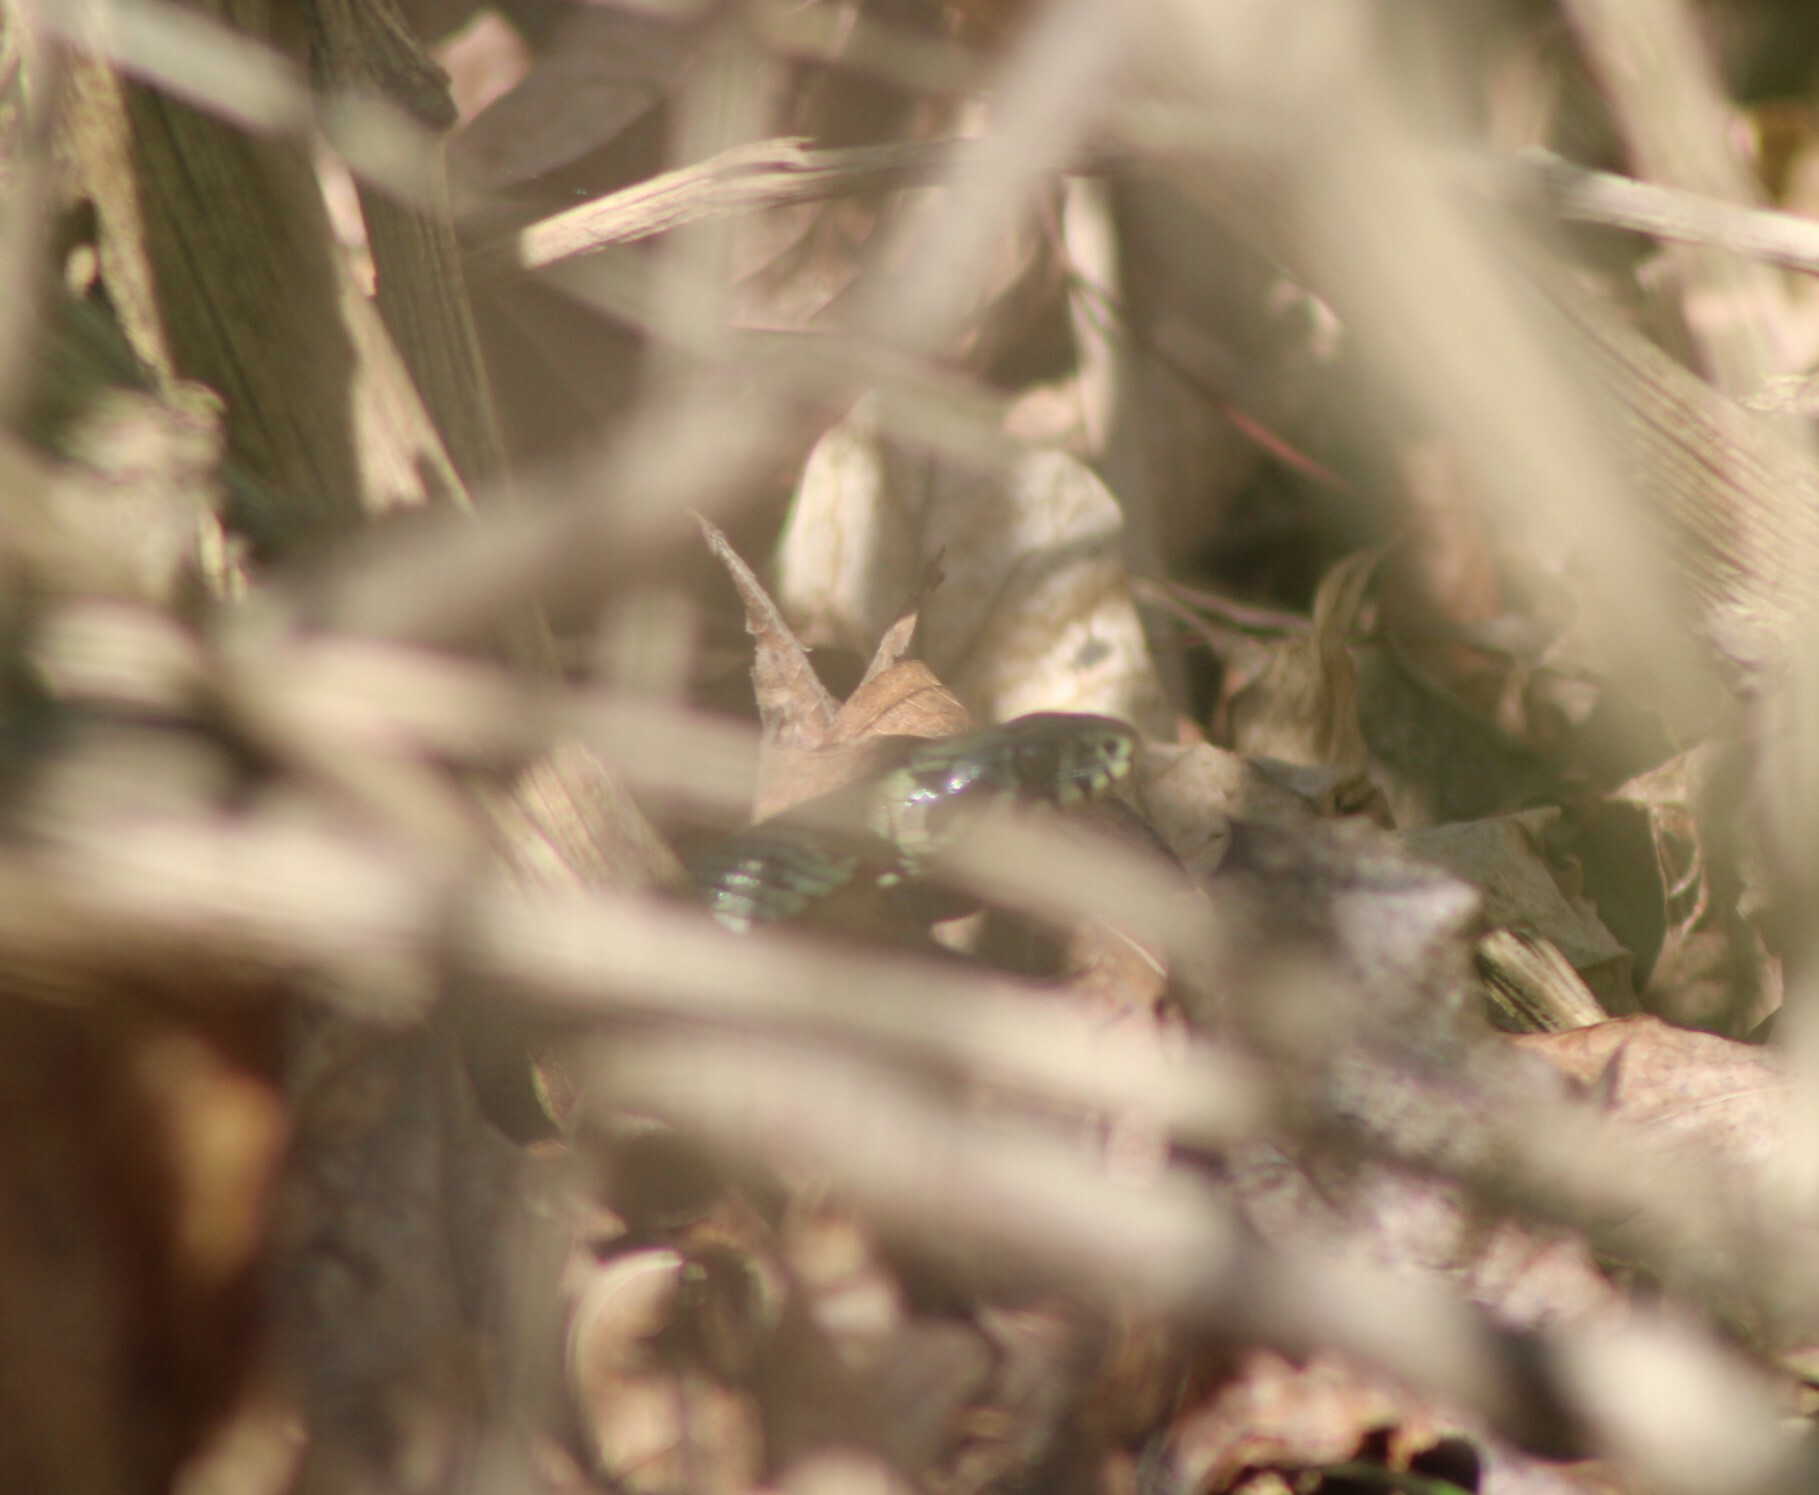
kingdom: Animalia
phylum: Chordata
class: Squamata
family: Colubridae
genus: Natrix
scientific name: Natrix natrix
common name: Grass snake
